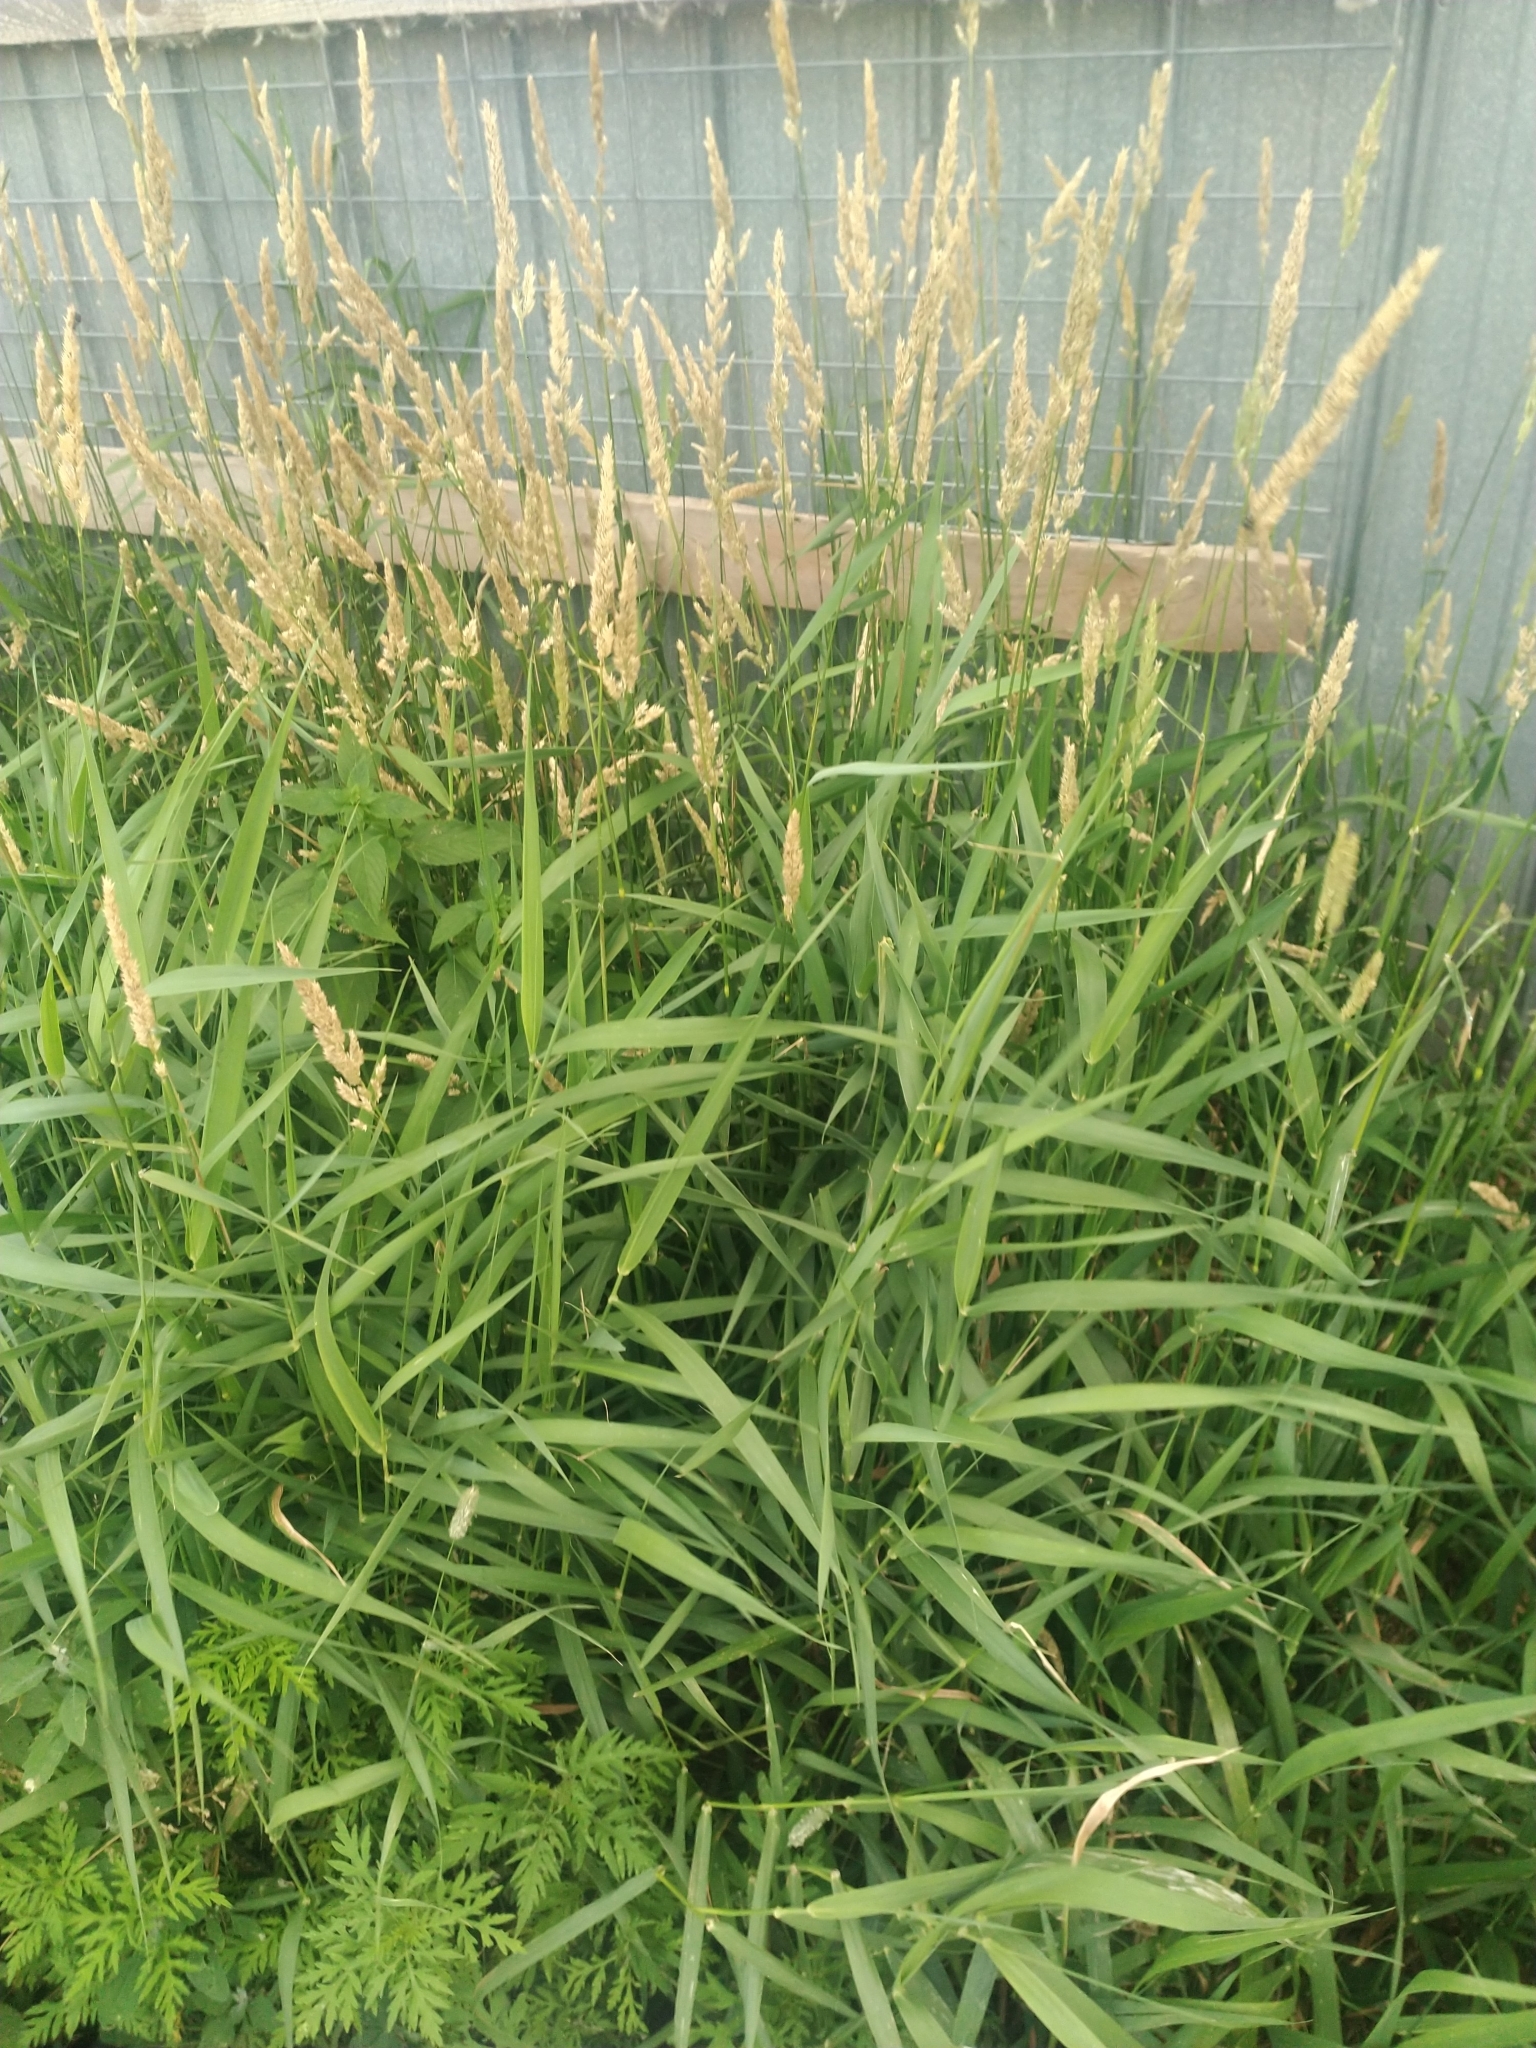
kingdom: Plantae
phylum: Tracheophyta
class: Liliopsida
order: Poales
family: Poaceae
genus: Phalaris
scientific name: Phalaris arundinacea
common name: Reed canary-grass
